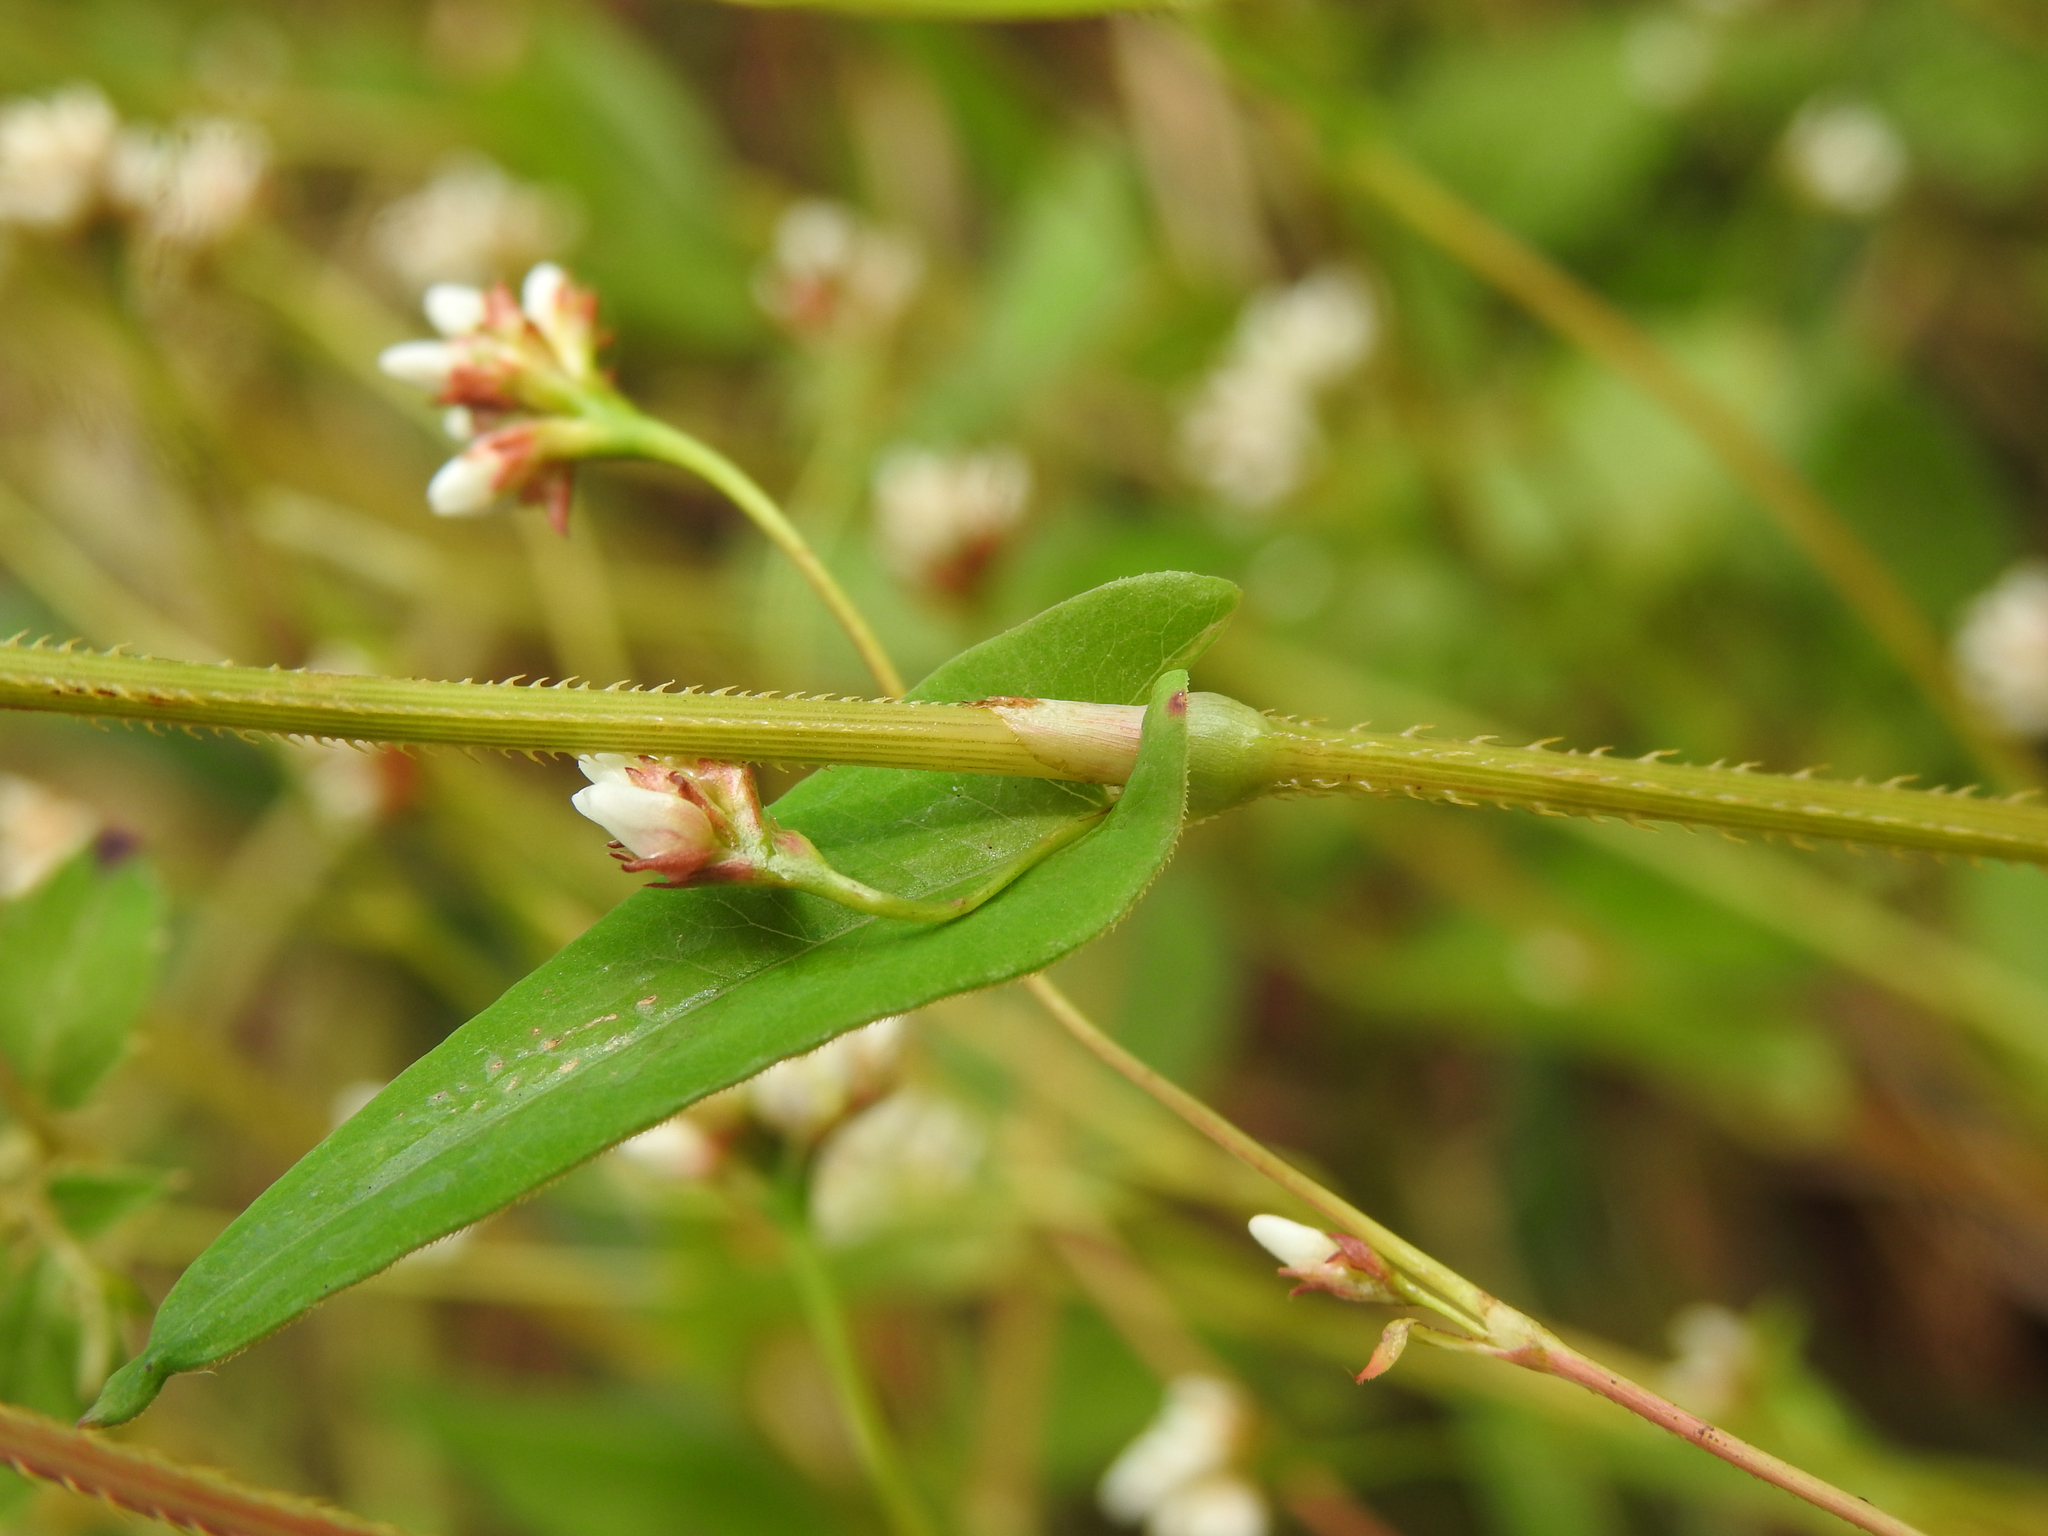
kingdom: Plantae
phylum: Tracheophyta
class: Magnoliopsida
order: Caryophyllales
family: Polygonaceae
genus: Persicaria
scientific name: Persicaria sagittata
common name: American tearthumb
